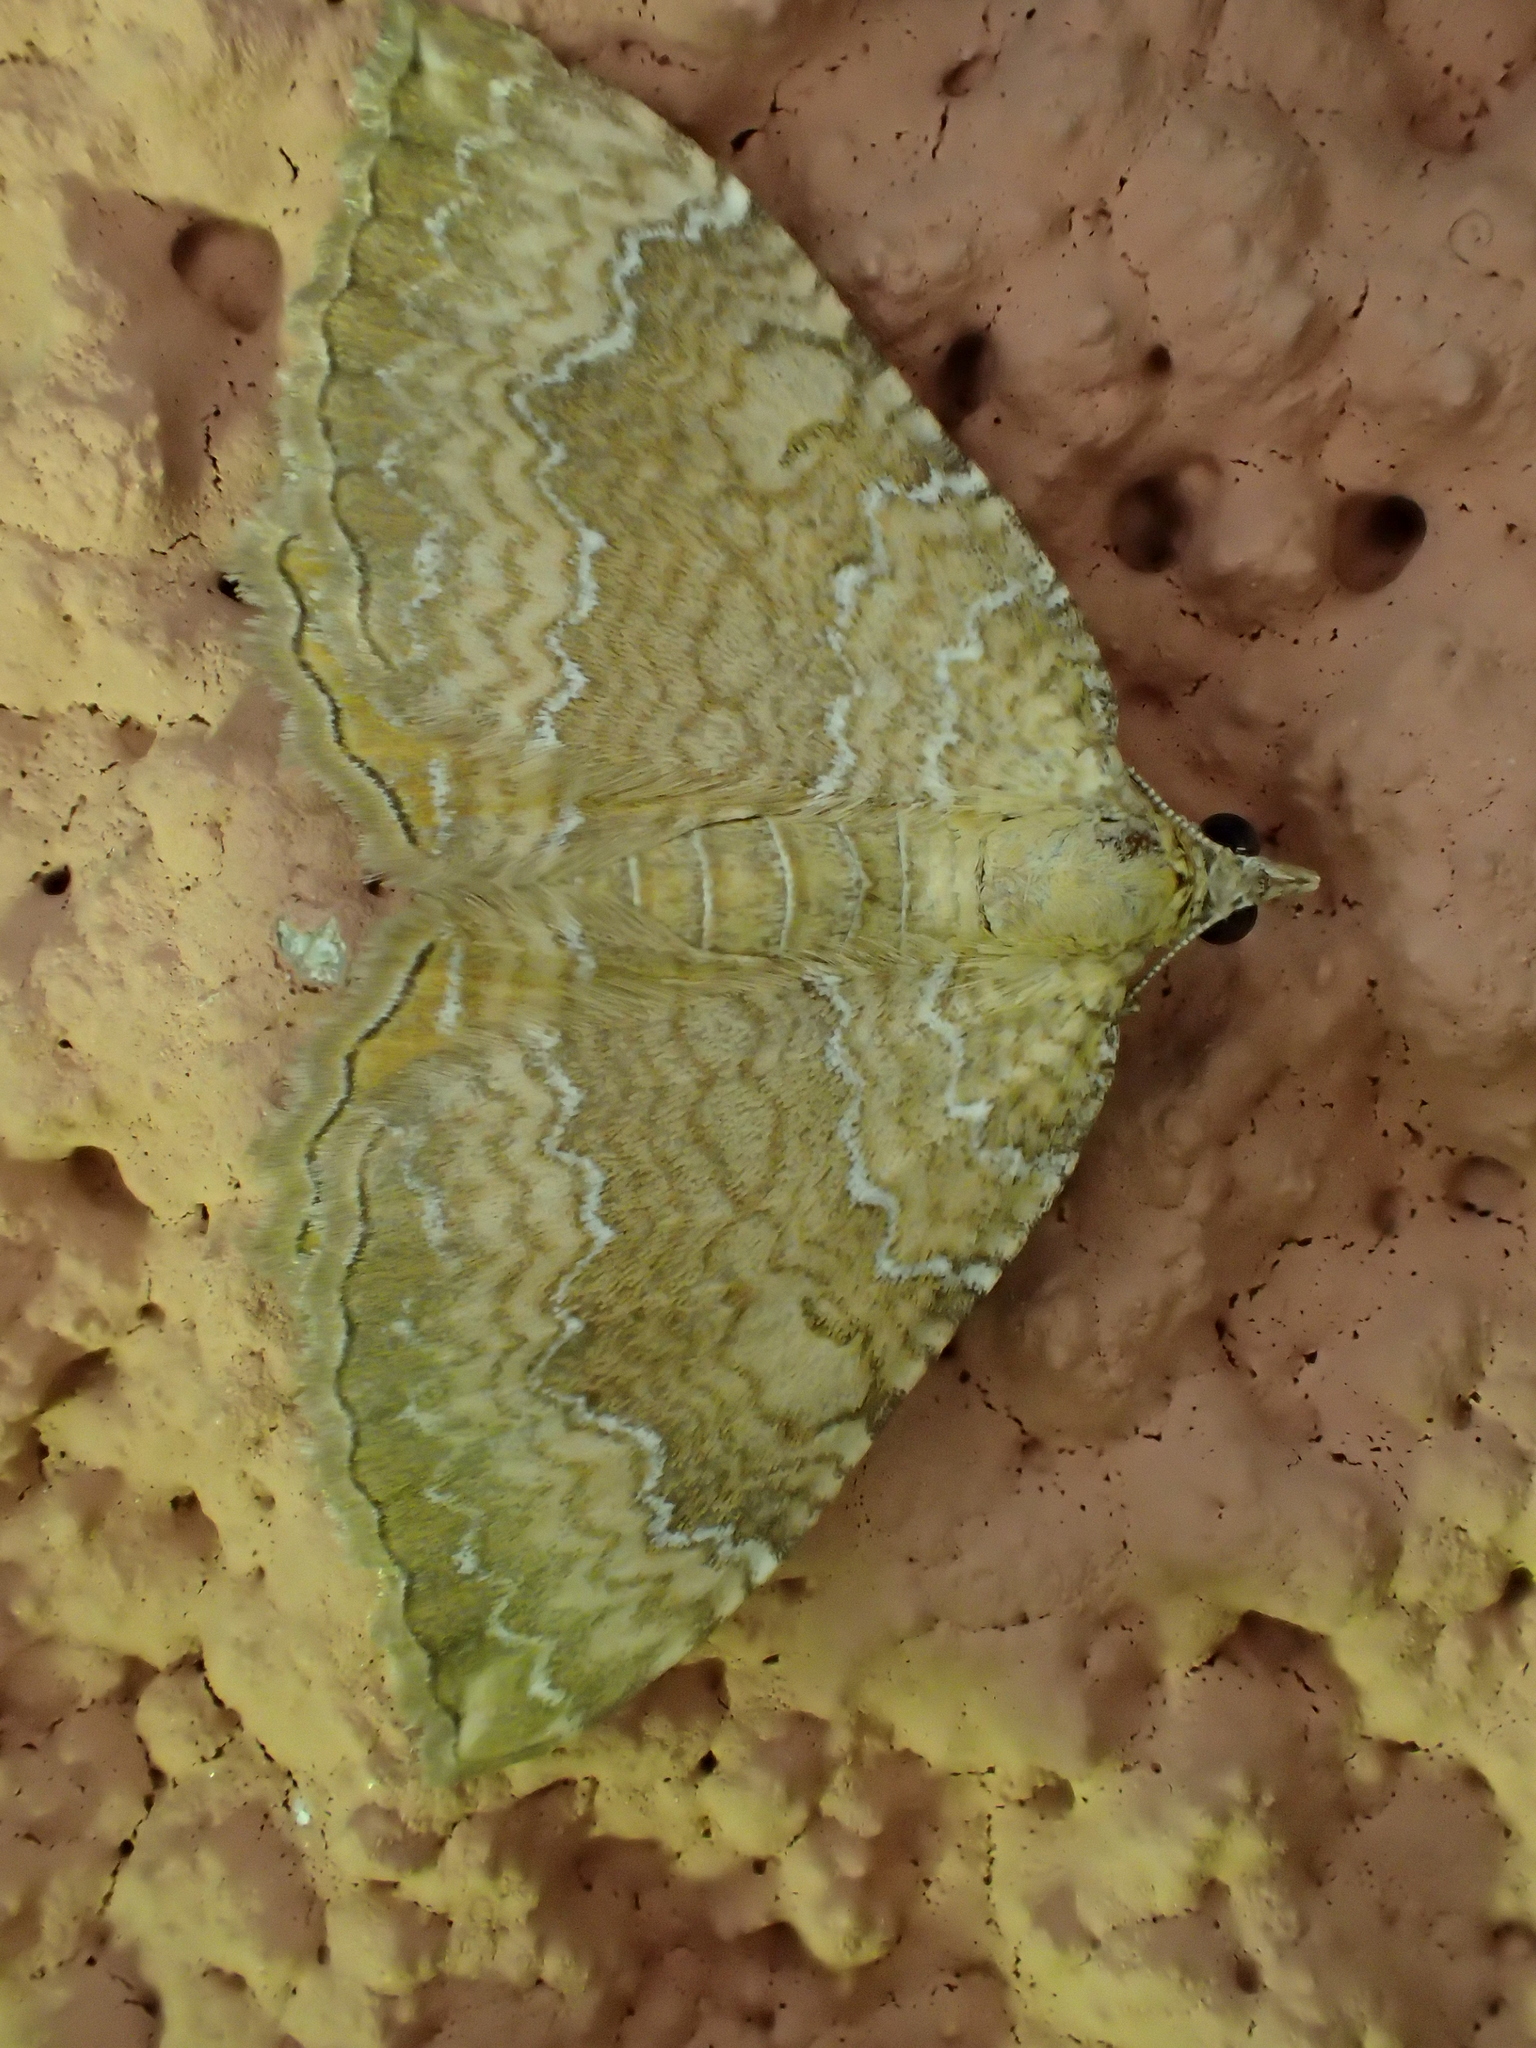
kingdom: Animalia
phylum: Arthropoda
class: Insecta
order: Lepidoptera
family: Geometridae
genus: Camptogramma
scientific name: Camptogramma bilineata
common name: Yellow shell
